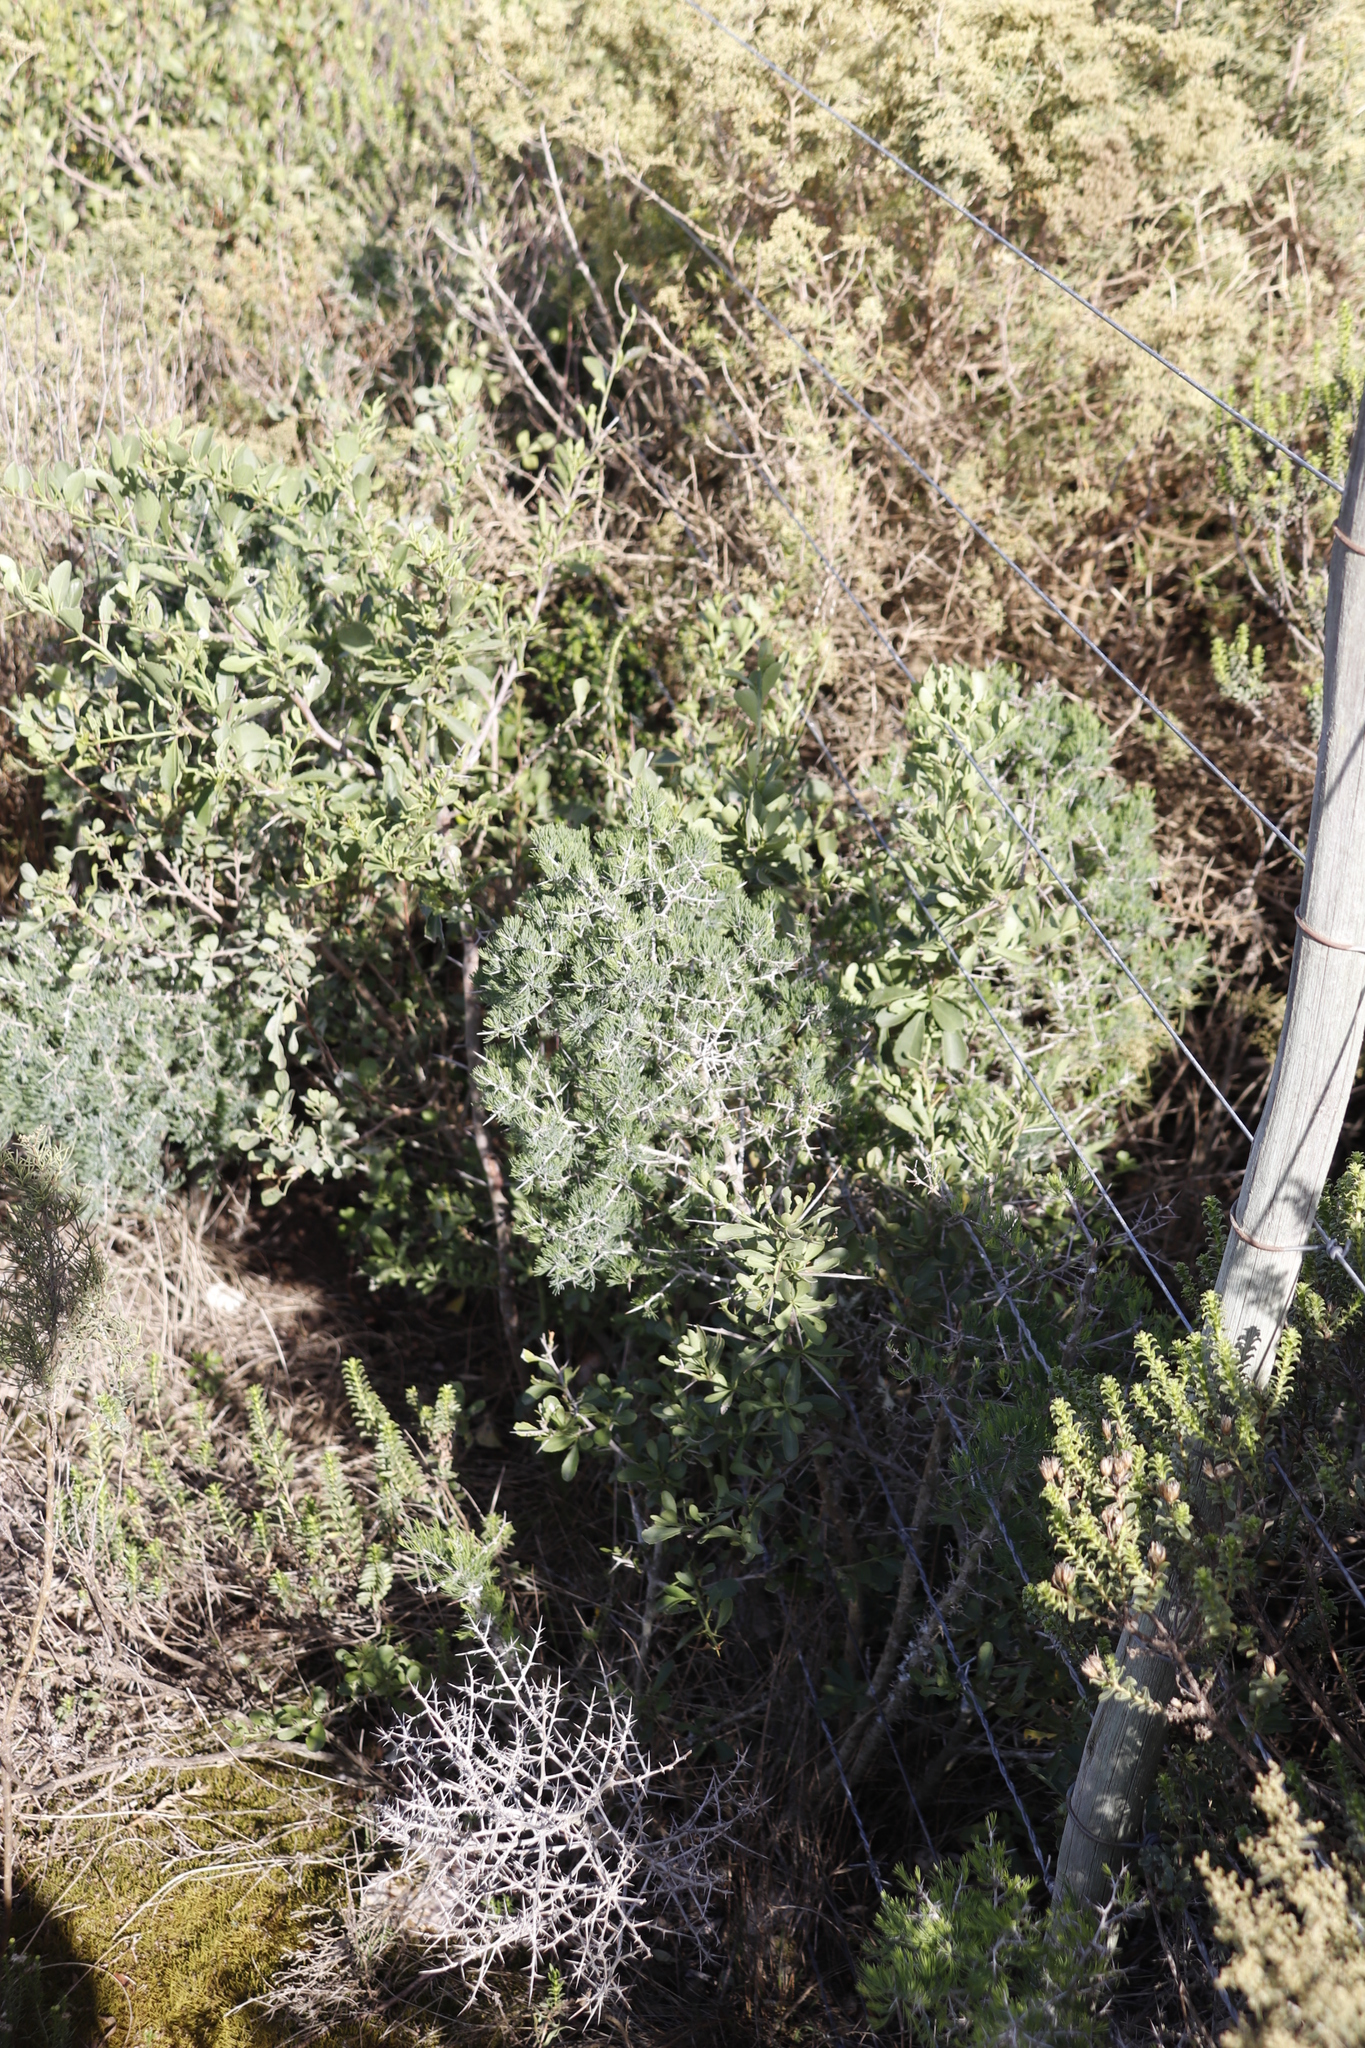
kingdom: Plantae
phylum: Tracheophyta
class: Liliopsida
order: Asparagales
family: Asparagaceae
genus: Asparagus
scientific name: Asparagus mariae
